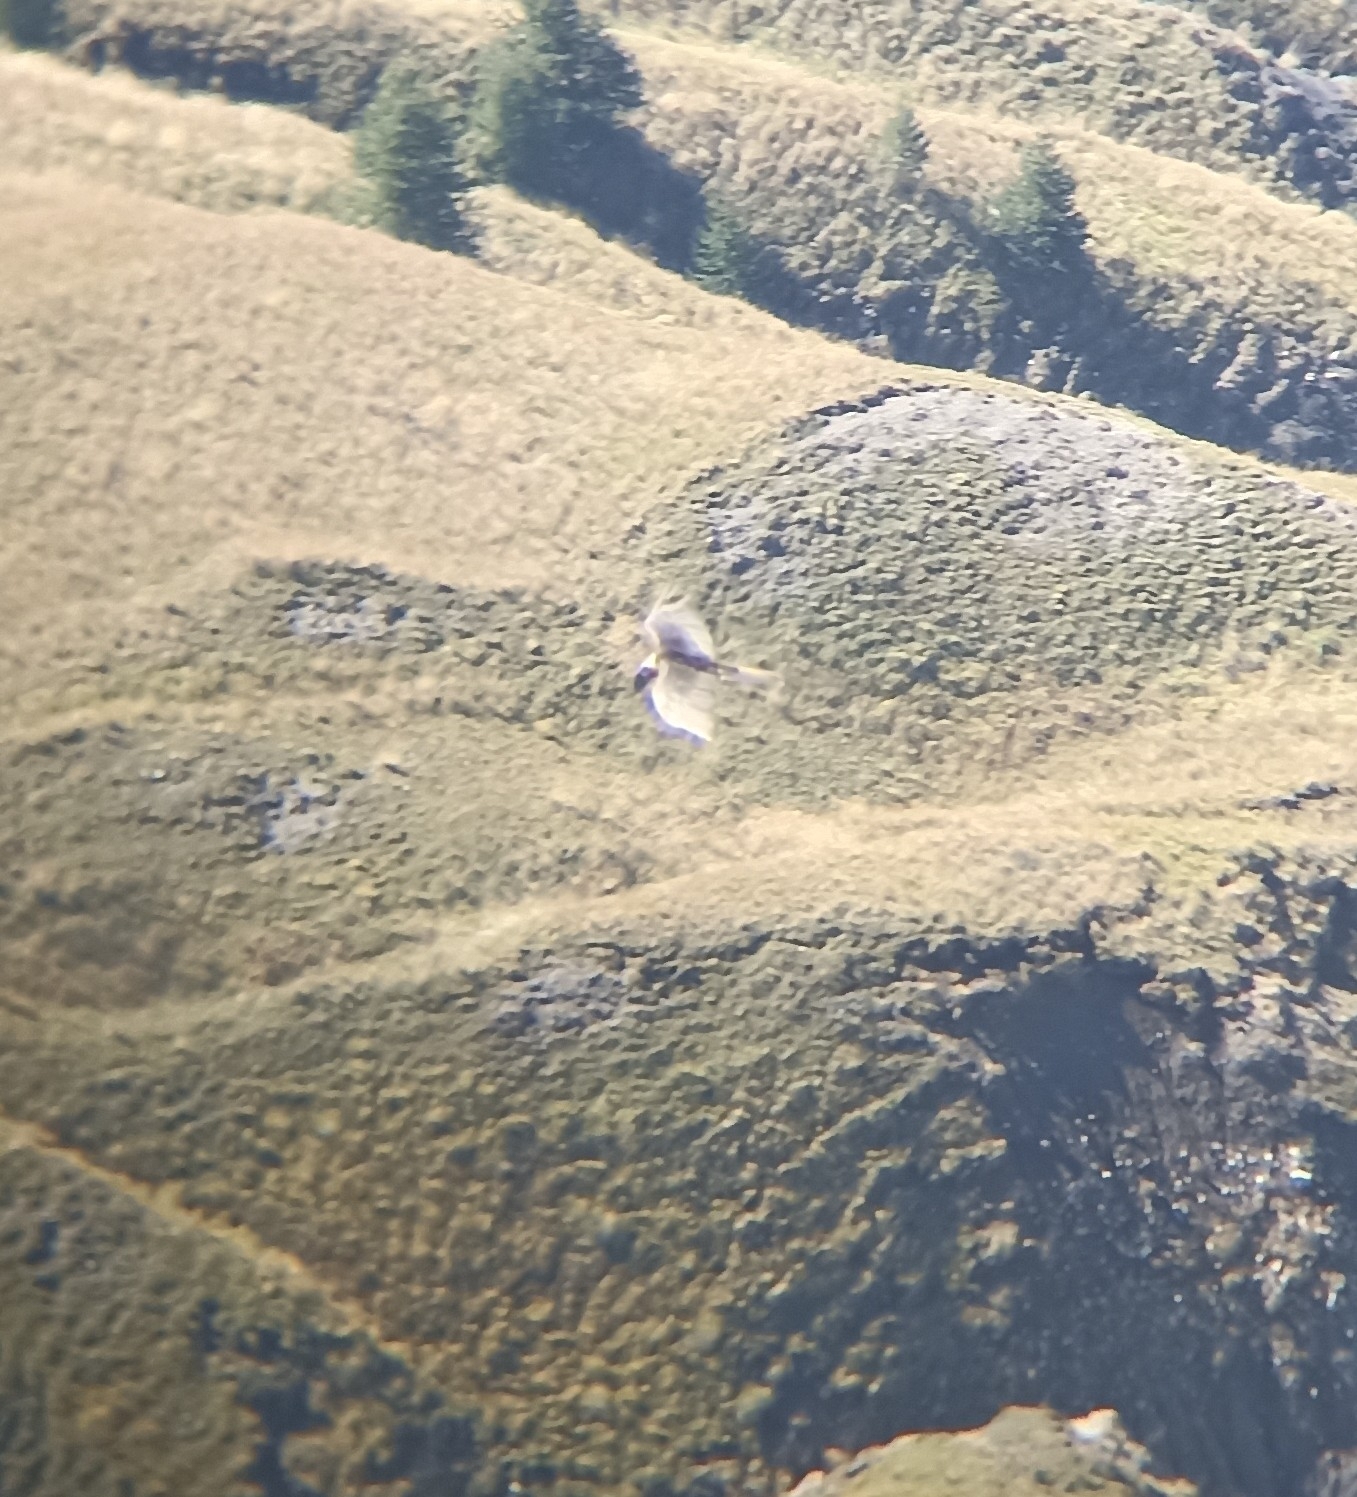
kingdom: Animalia
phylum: Chordata
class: Aves
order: Accipitriformes
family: Accipitridae
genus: Gypaetus
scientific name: Gypaetus barbatus
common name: Bearded vulture
